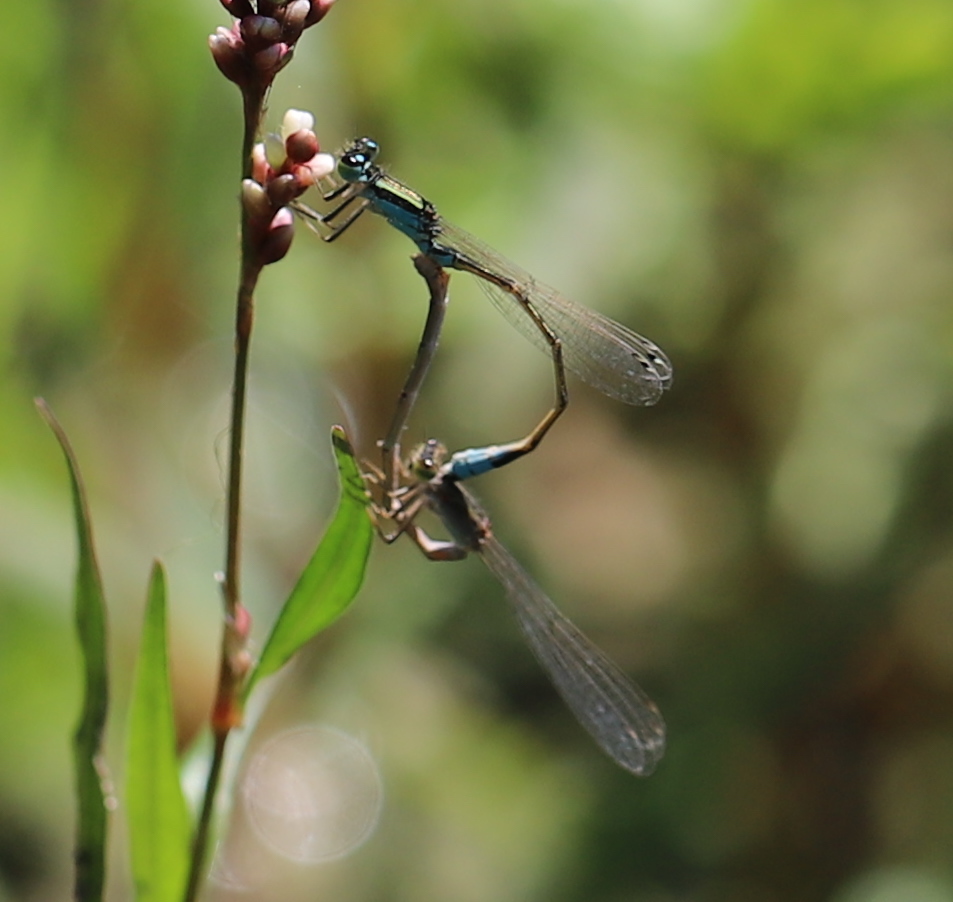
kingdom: Animalia
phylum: Arthropoda
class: Insecta
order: Odonata
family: Coenagrionidae
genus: Ischnura
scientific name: Ischnura fluviatilis
